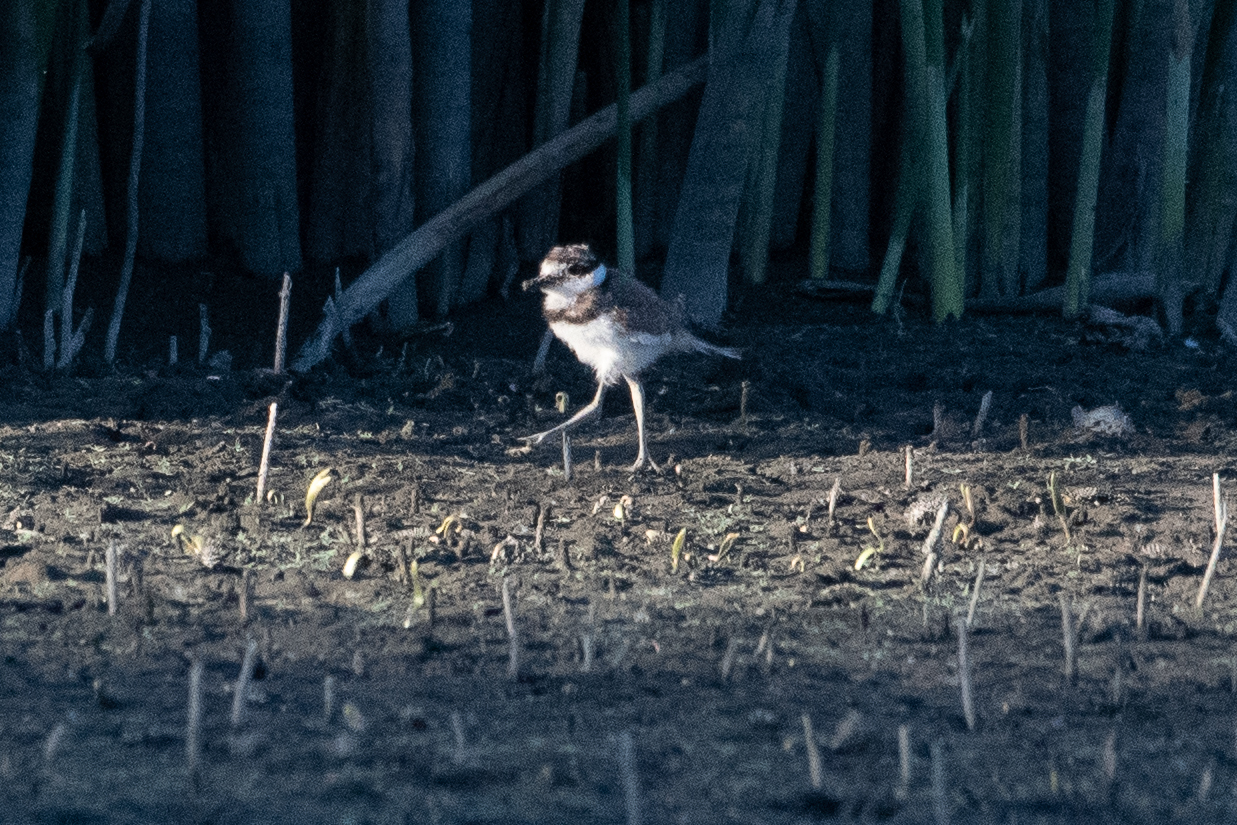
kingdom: Animalia
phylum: Chordata
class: Aves
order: Charadriiformes
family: Charadriidae
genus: Charadrius
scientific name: Charadrius vociferus
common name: Killdeer
